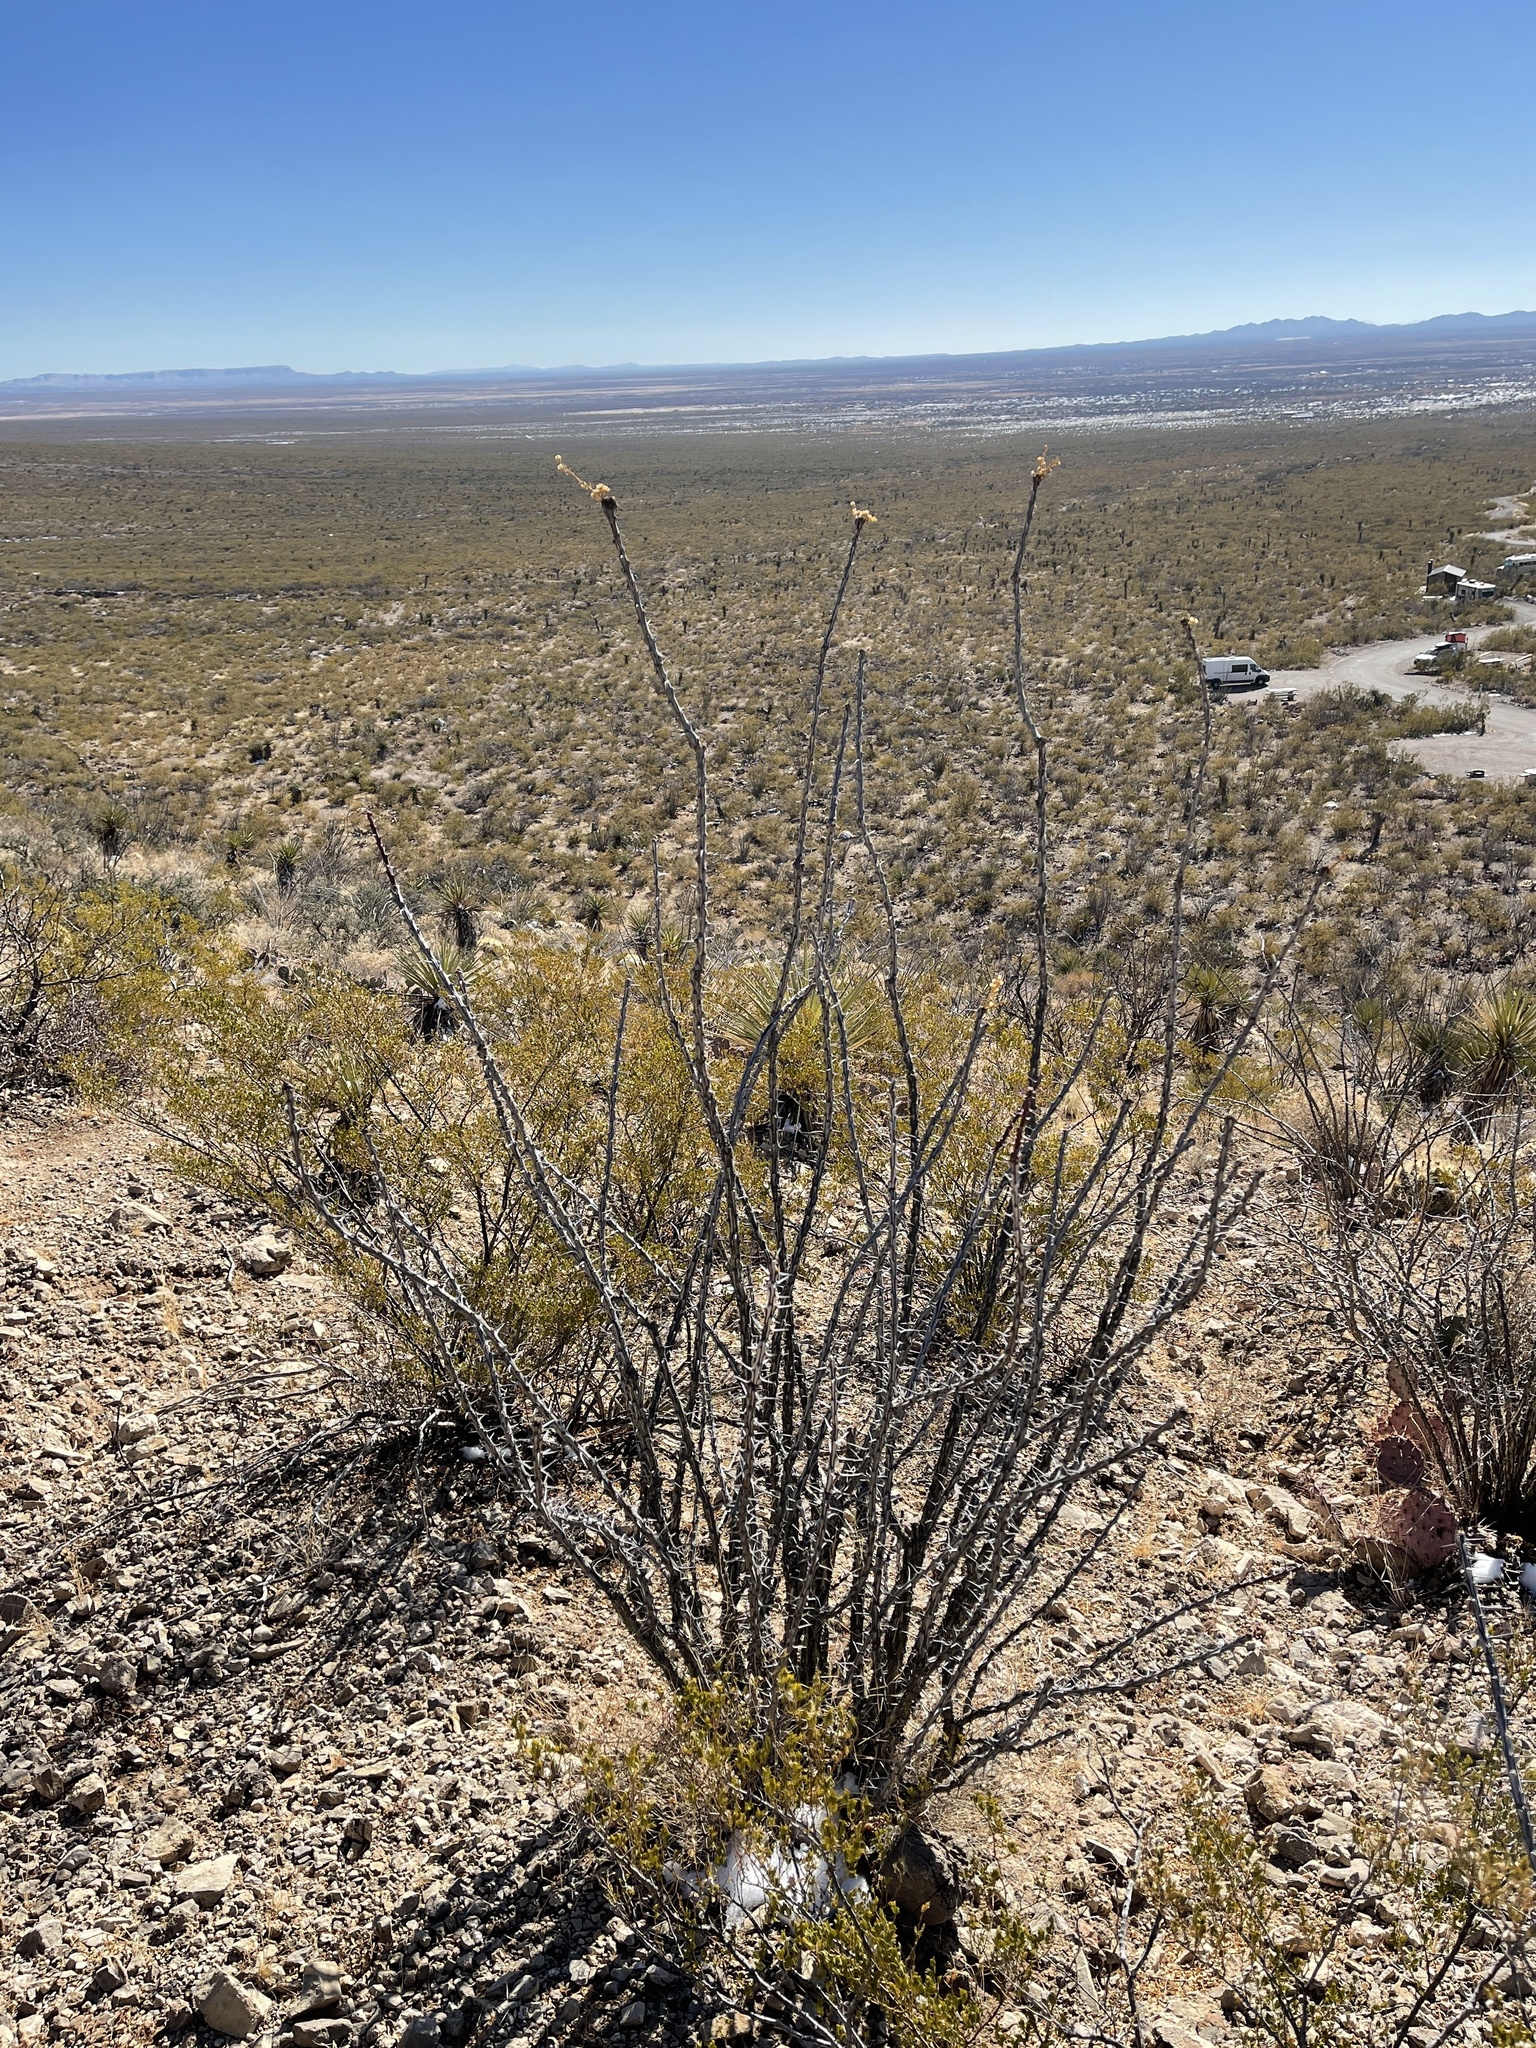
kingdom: Plantae
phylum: Tracheophyta
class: Magnoliopsida
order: Zygophyllales
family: Zygophyllaceae
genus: Larrea
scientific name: Larrea tridentata
